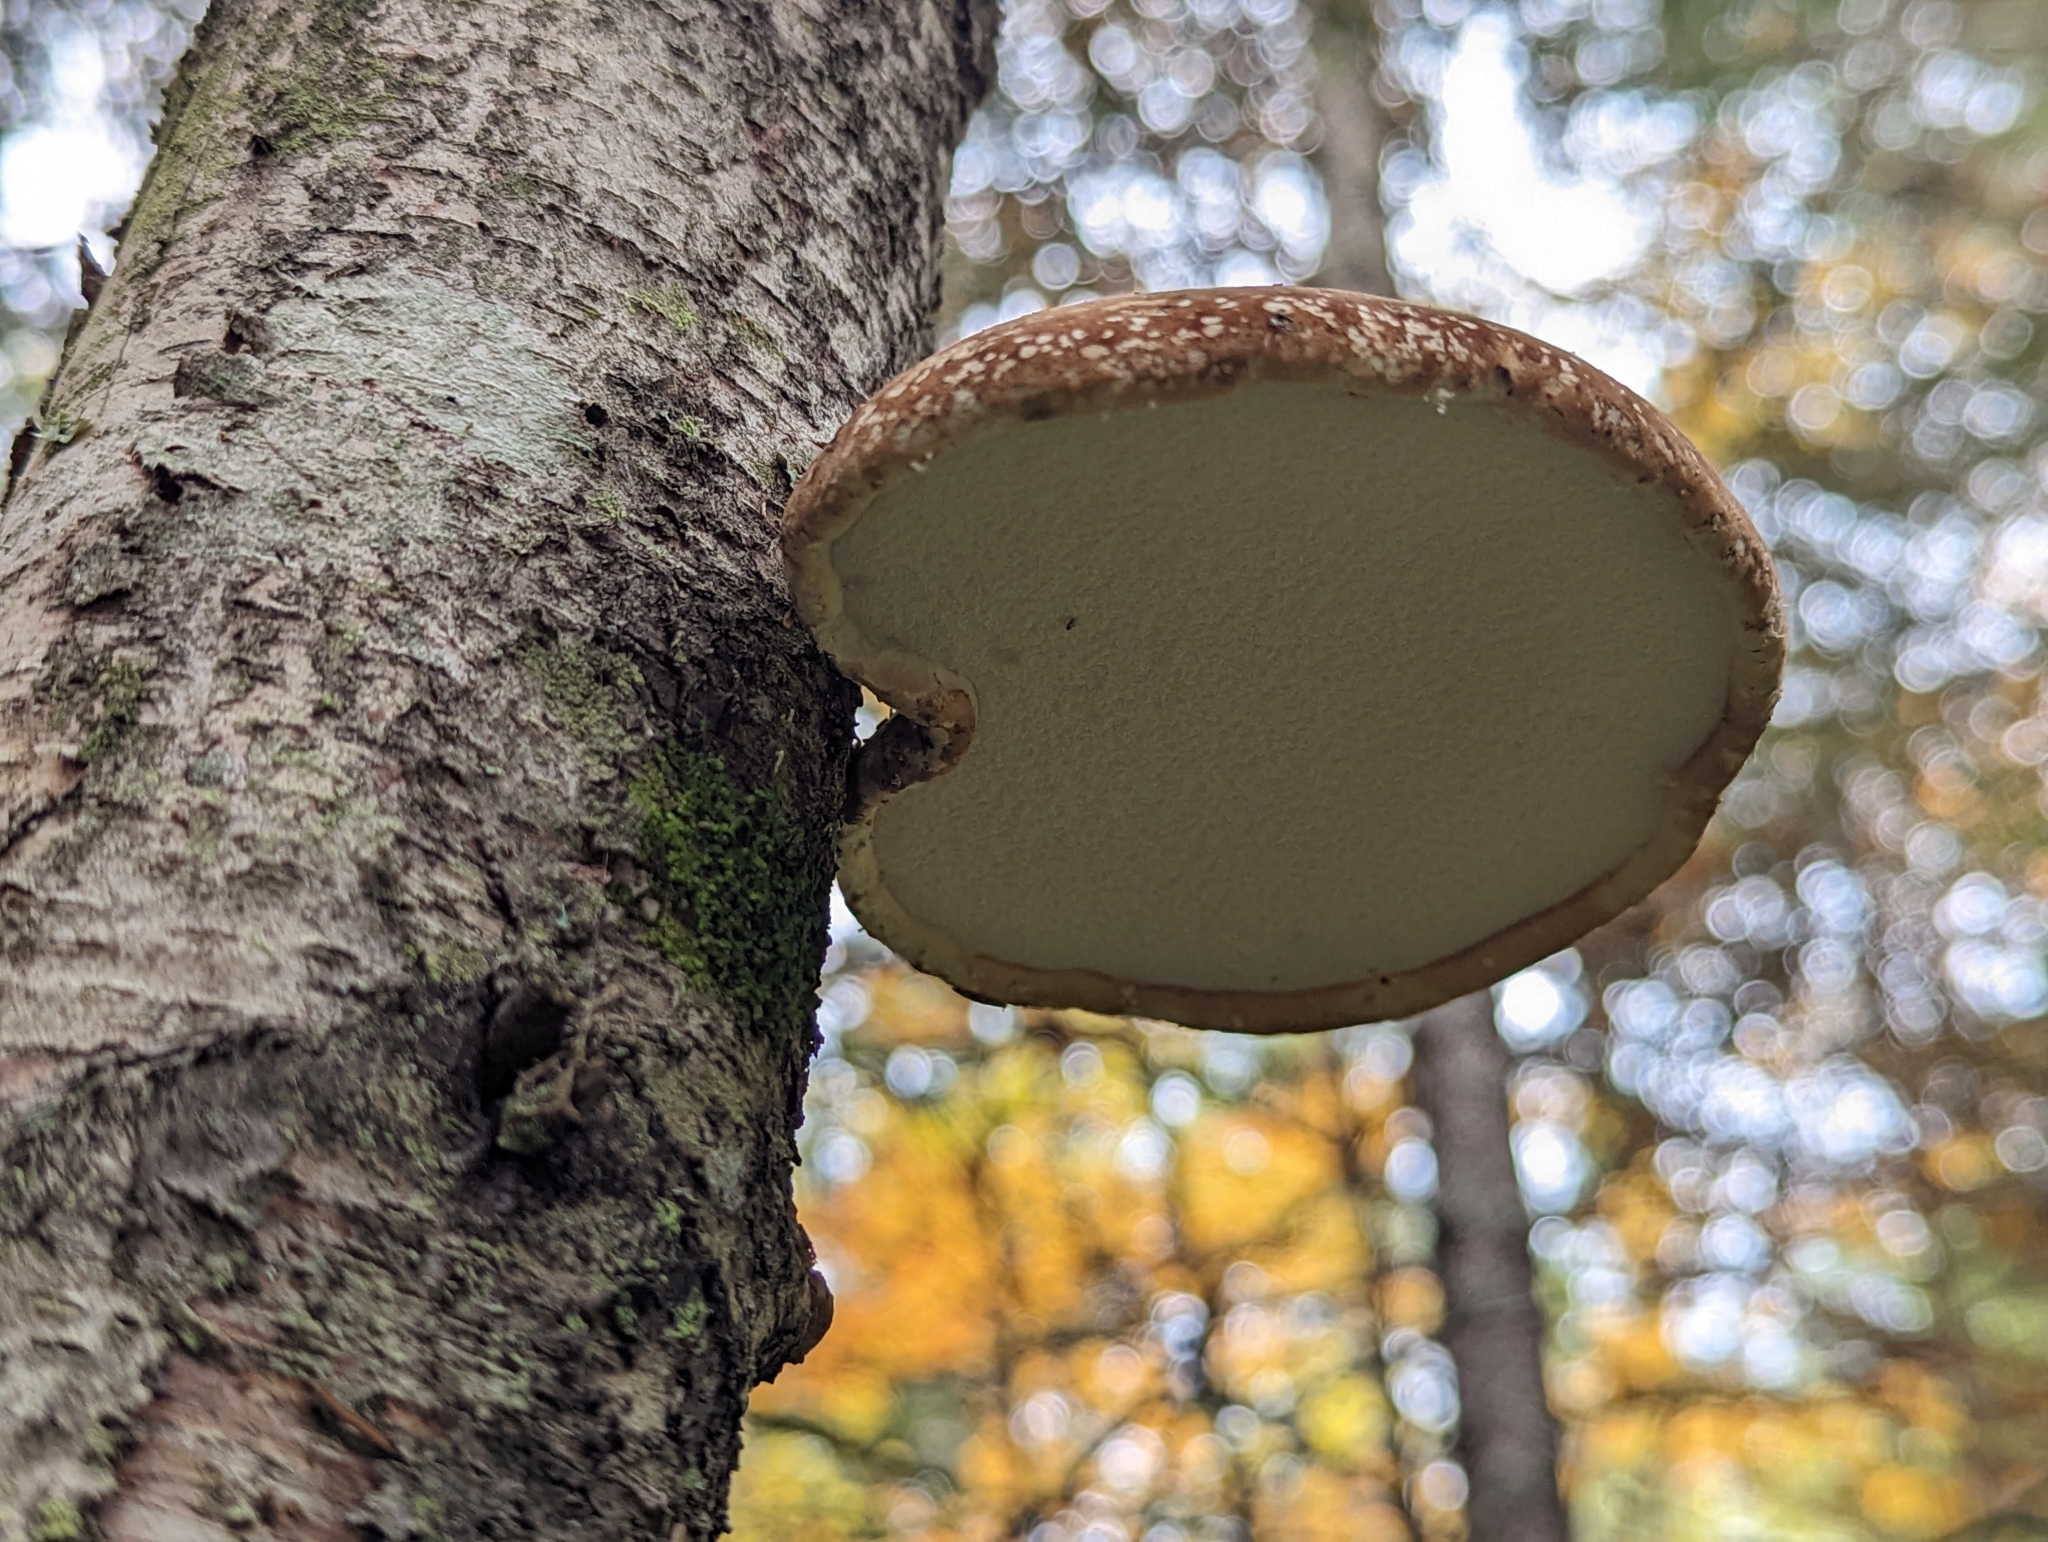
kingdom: Fungi
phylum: Basidiomycota
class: Agaricomycetes
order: Polyporales
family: Fomitopsidaceae
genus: Fomitopsis
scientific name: Fomitopsis betulina
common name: Birch polypore
